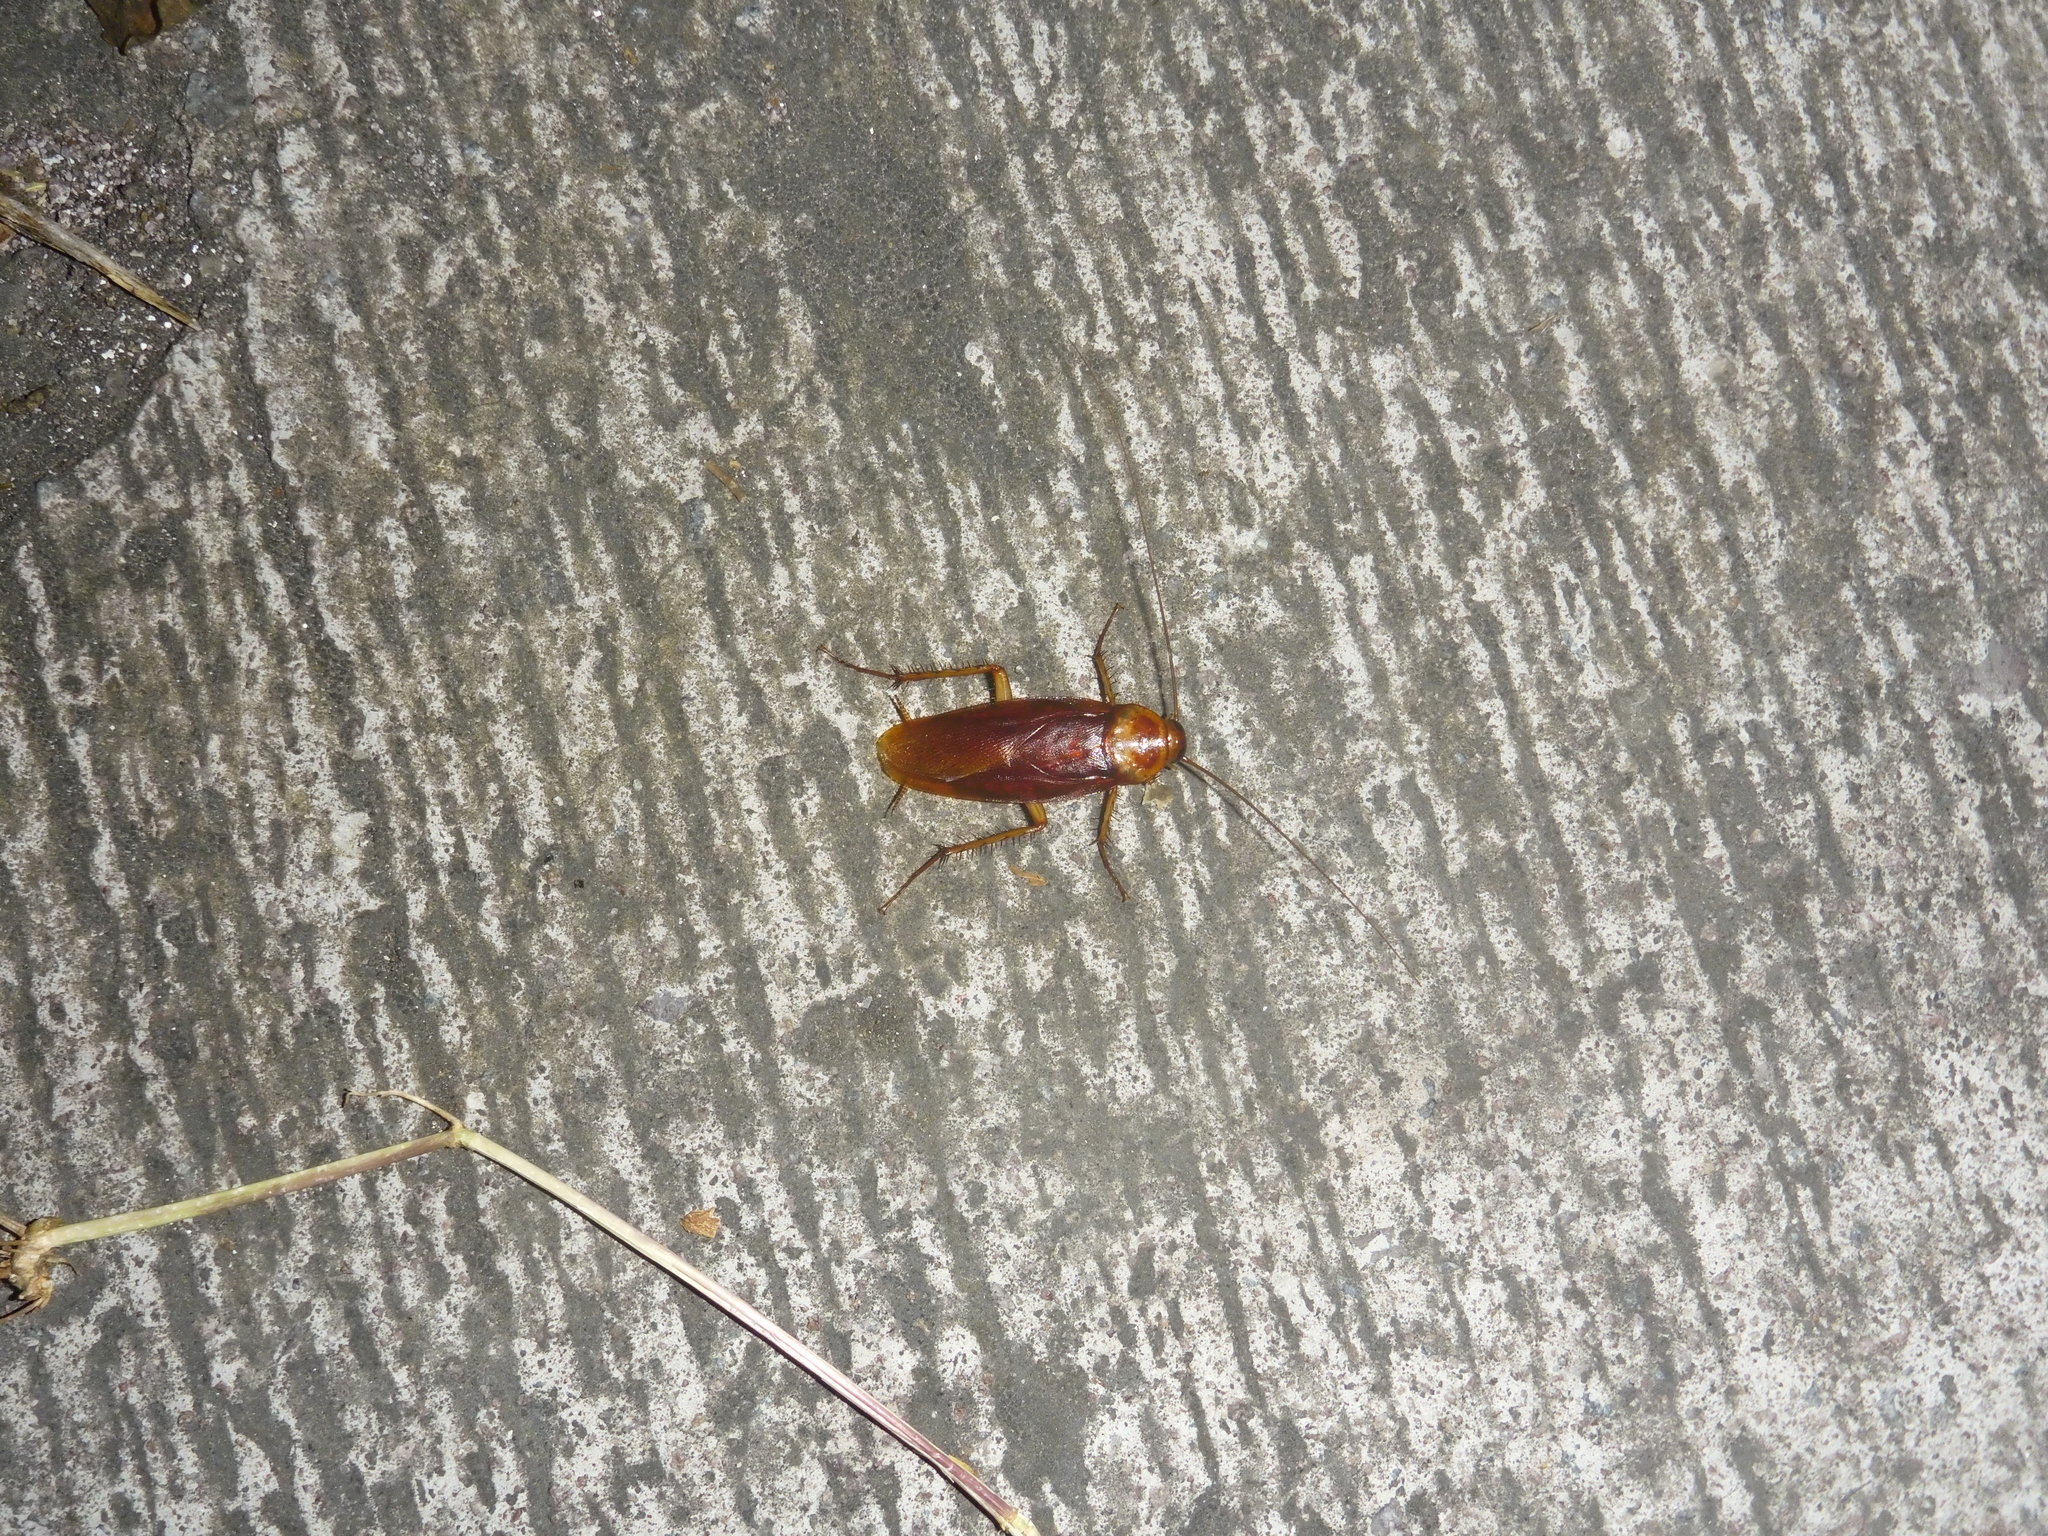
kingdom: Animalia
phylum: Arthropoda
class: Insecta
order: Blattodea
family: Blattidae
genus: Periplaneta
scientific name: Periplaneta americana
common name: American cockroach
